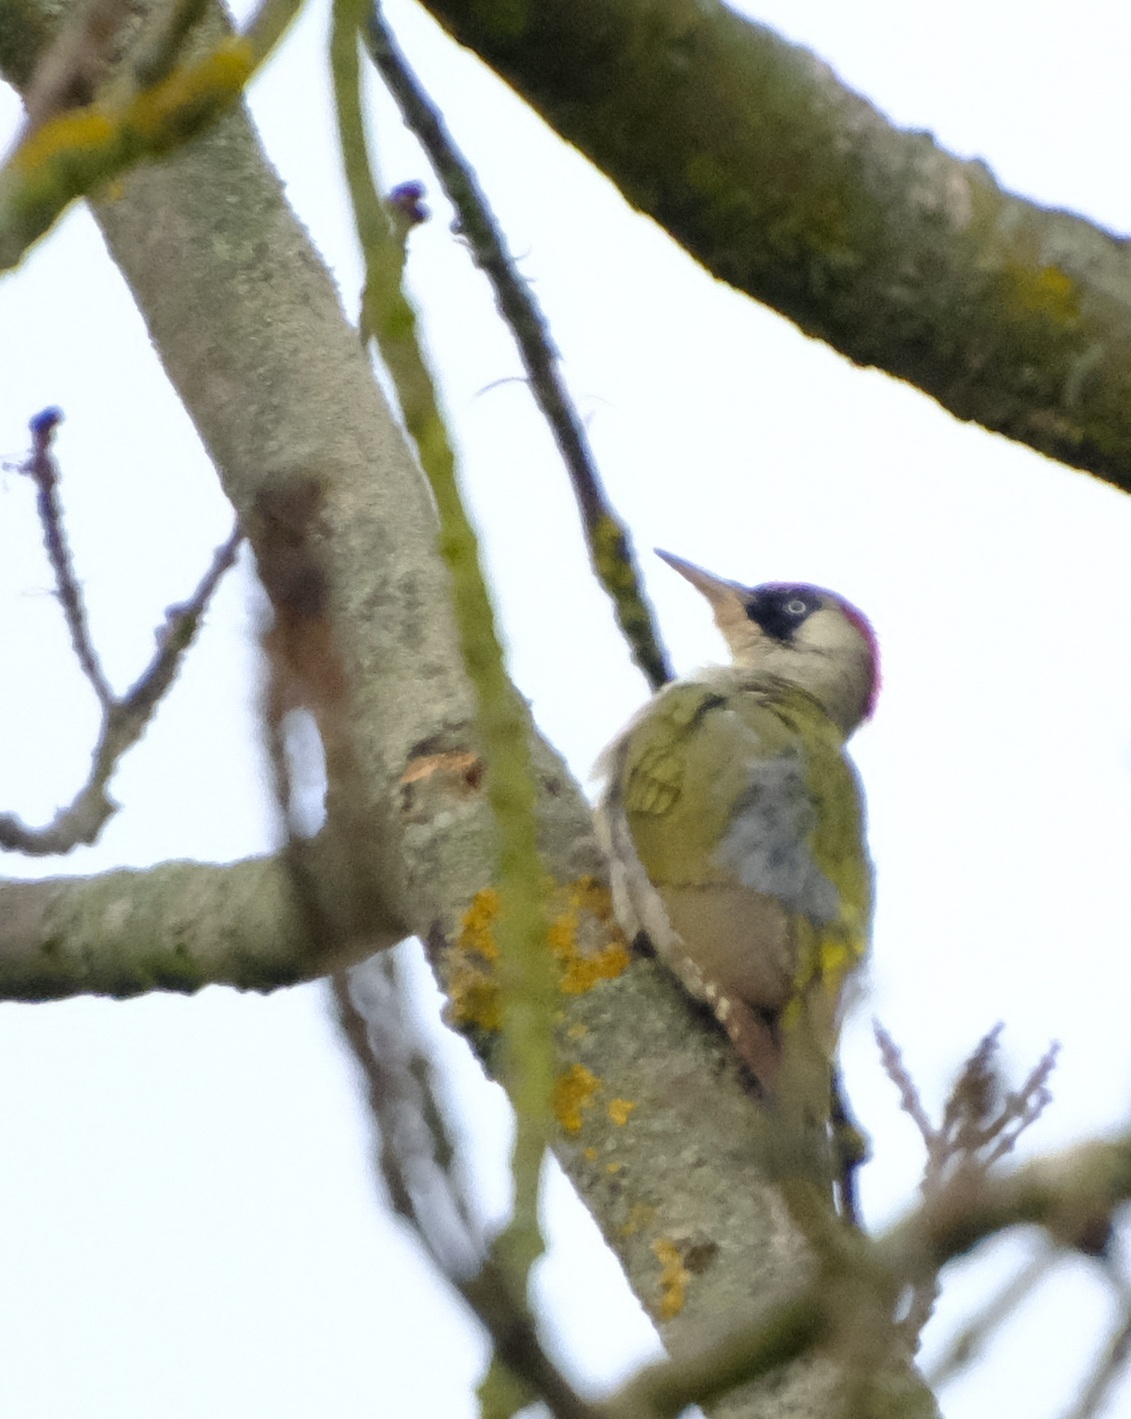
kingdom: Animalia
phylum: Chordata
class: Aves
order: Piciformes
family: Picidae
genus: Picus
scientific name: Picus viridis
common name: European green woodpecker
